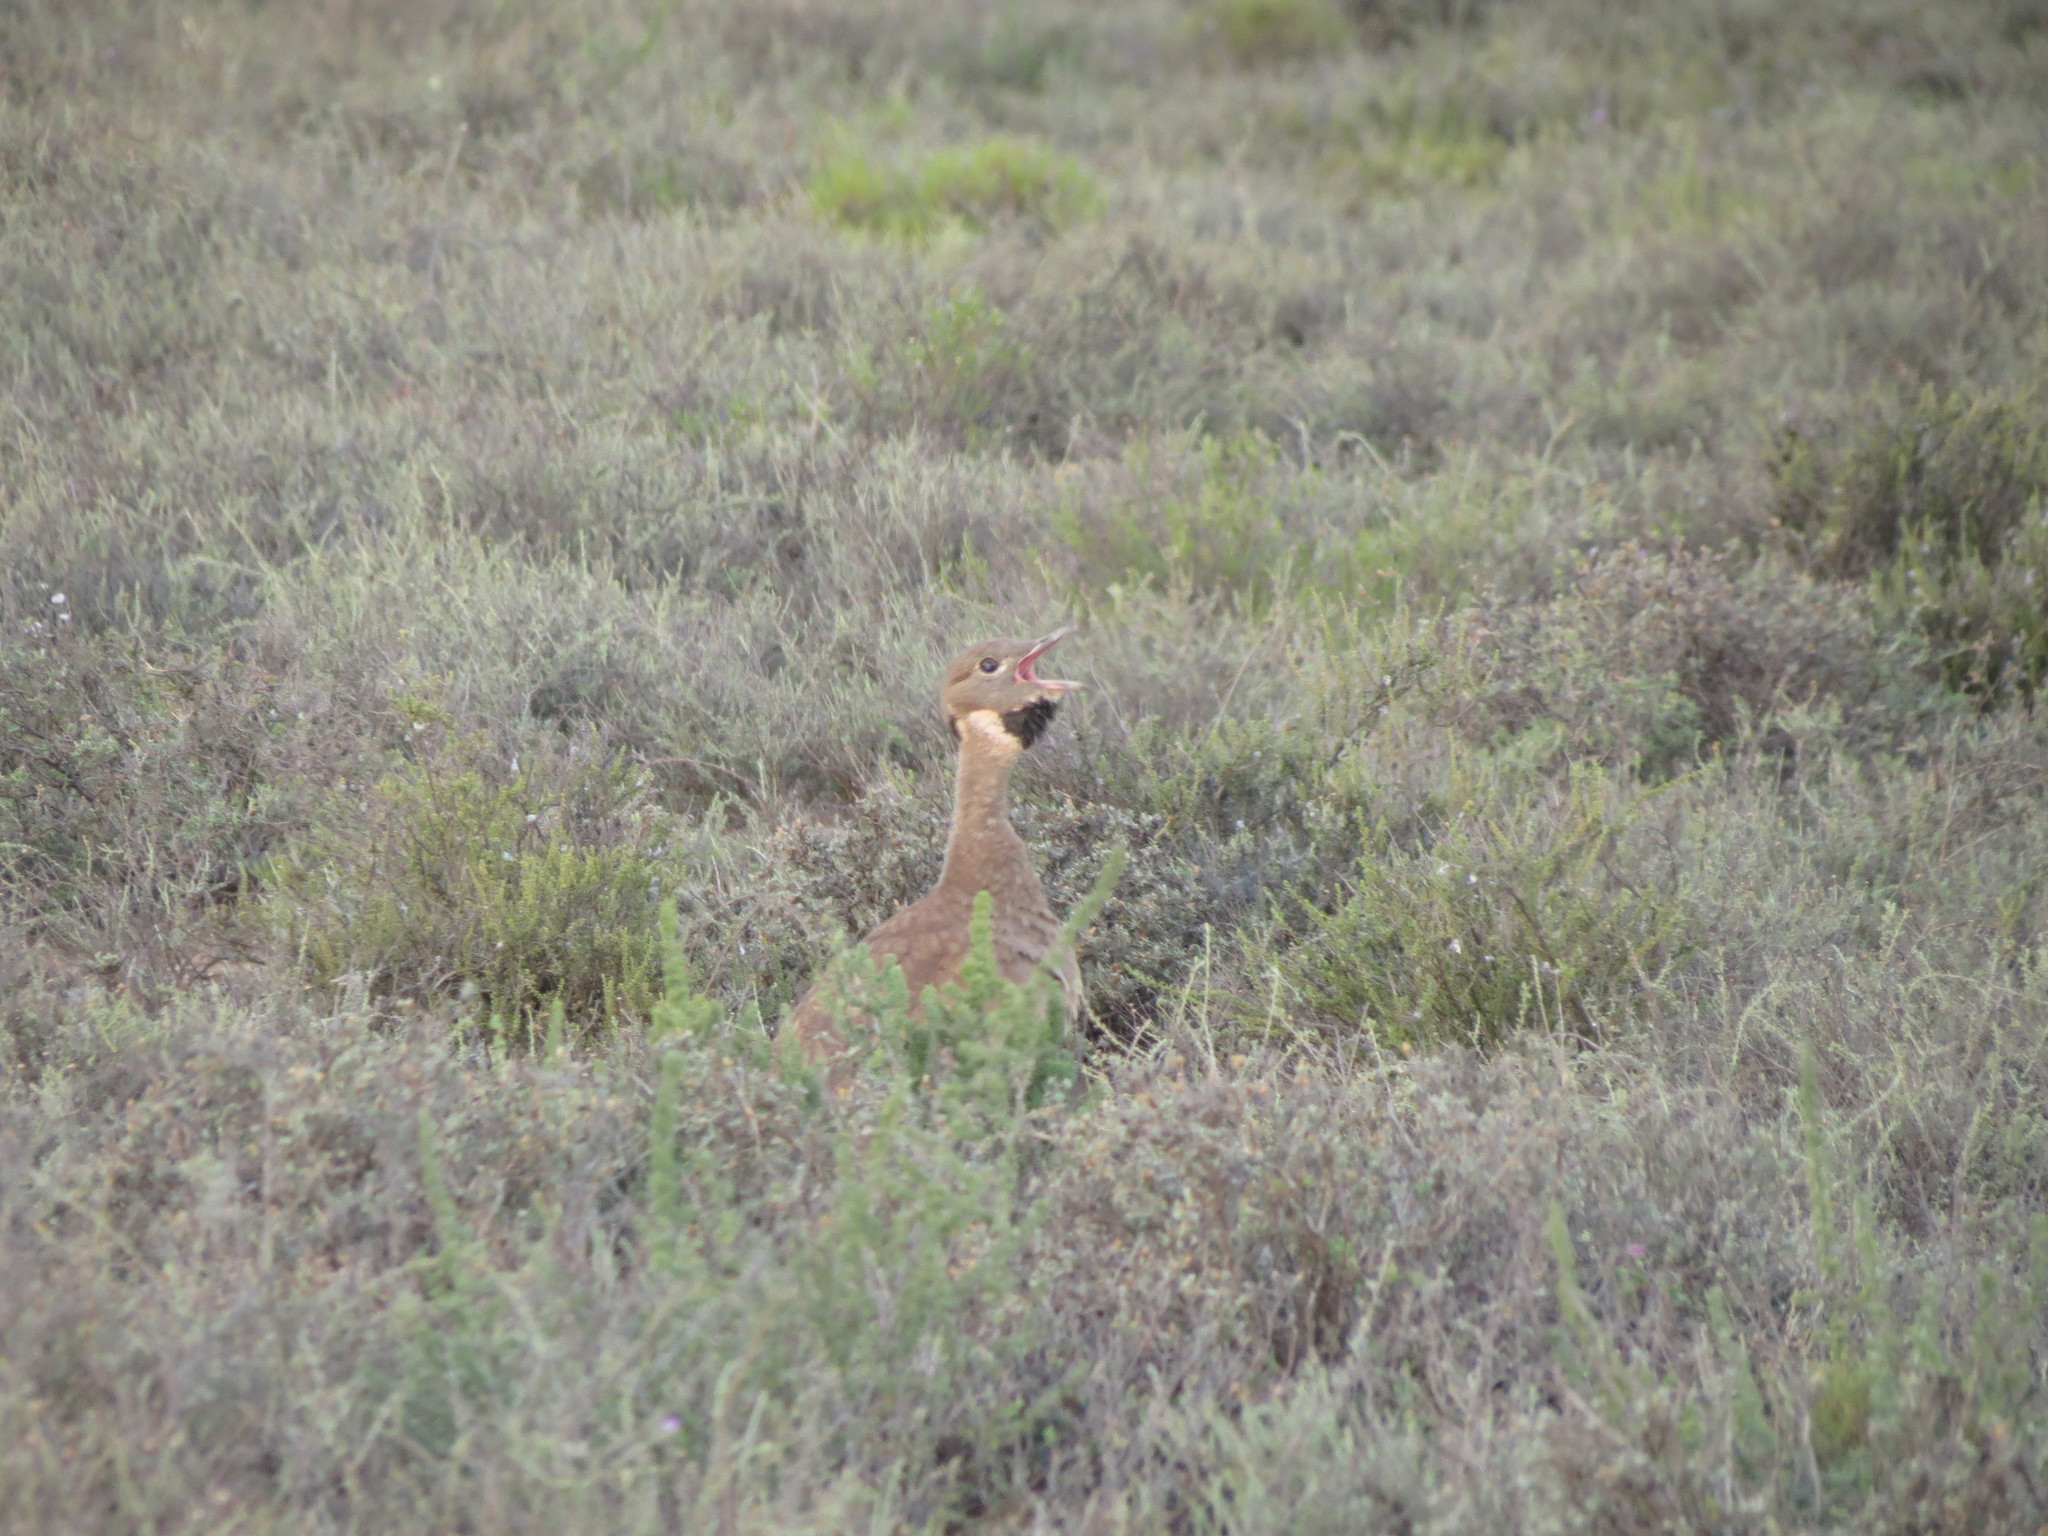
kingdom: Animalia
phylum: Chordata
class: Aves
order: Otidiformes
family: Otididae
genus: Eupodotis
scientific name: Eupodotis vigorsii
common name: Karoo korhaan
